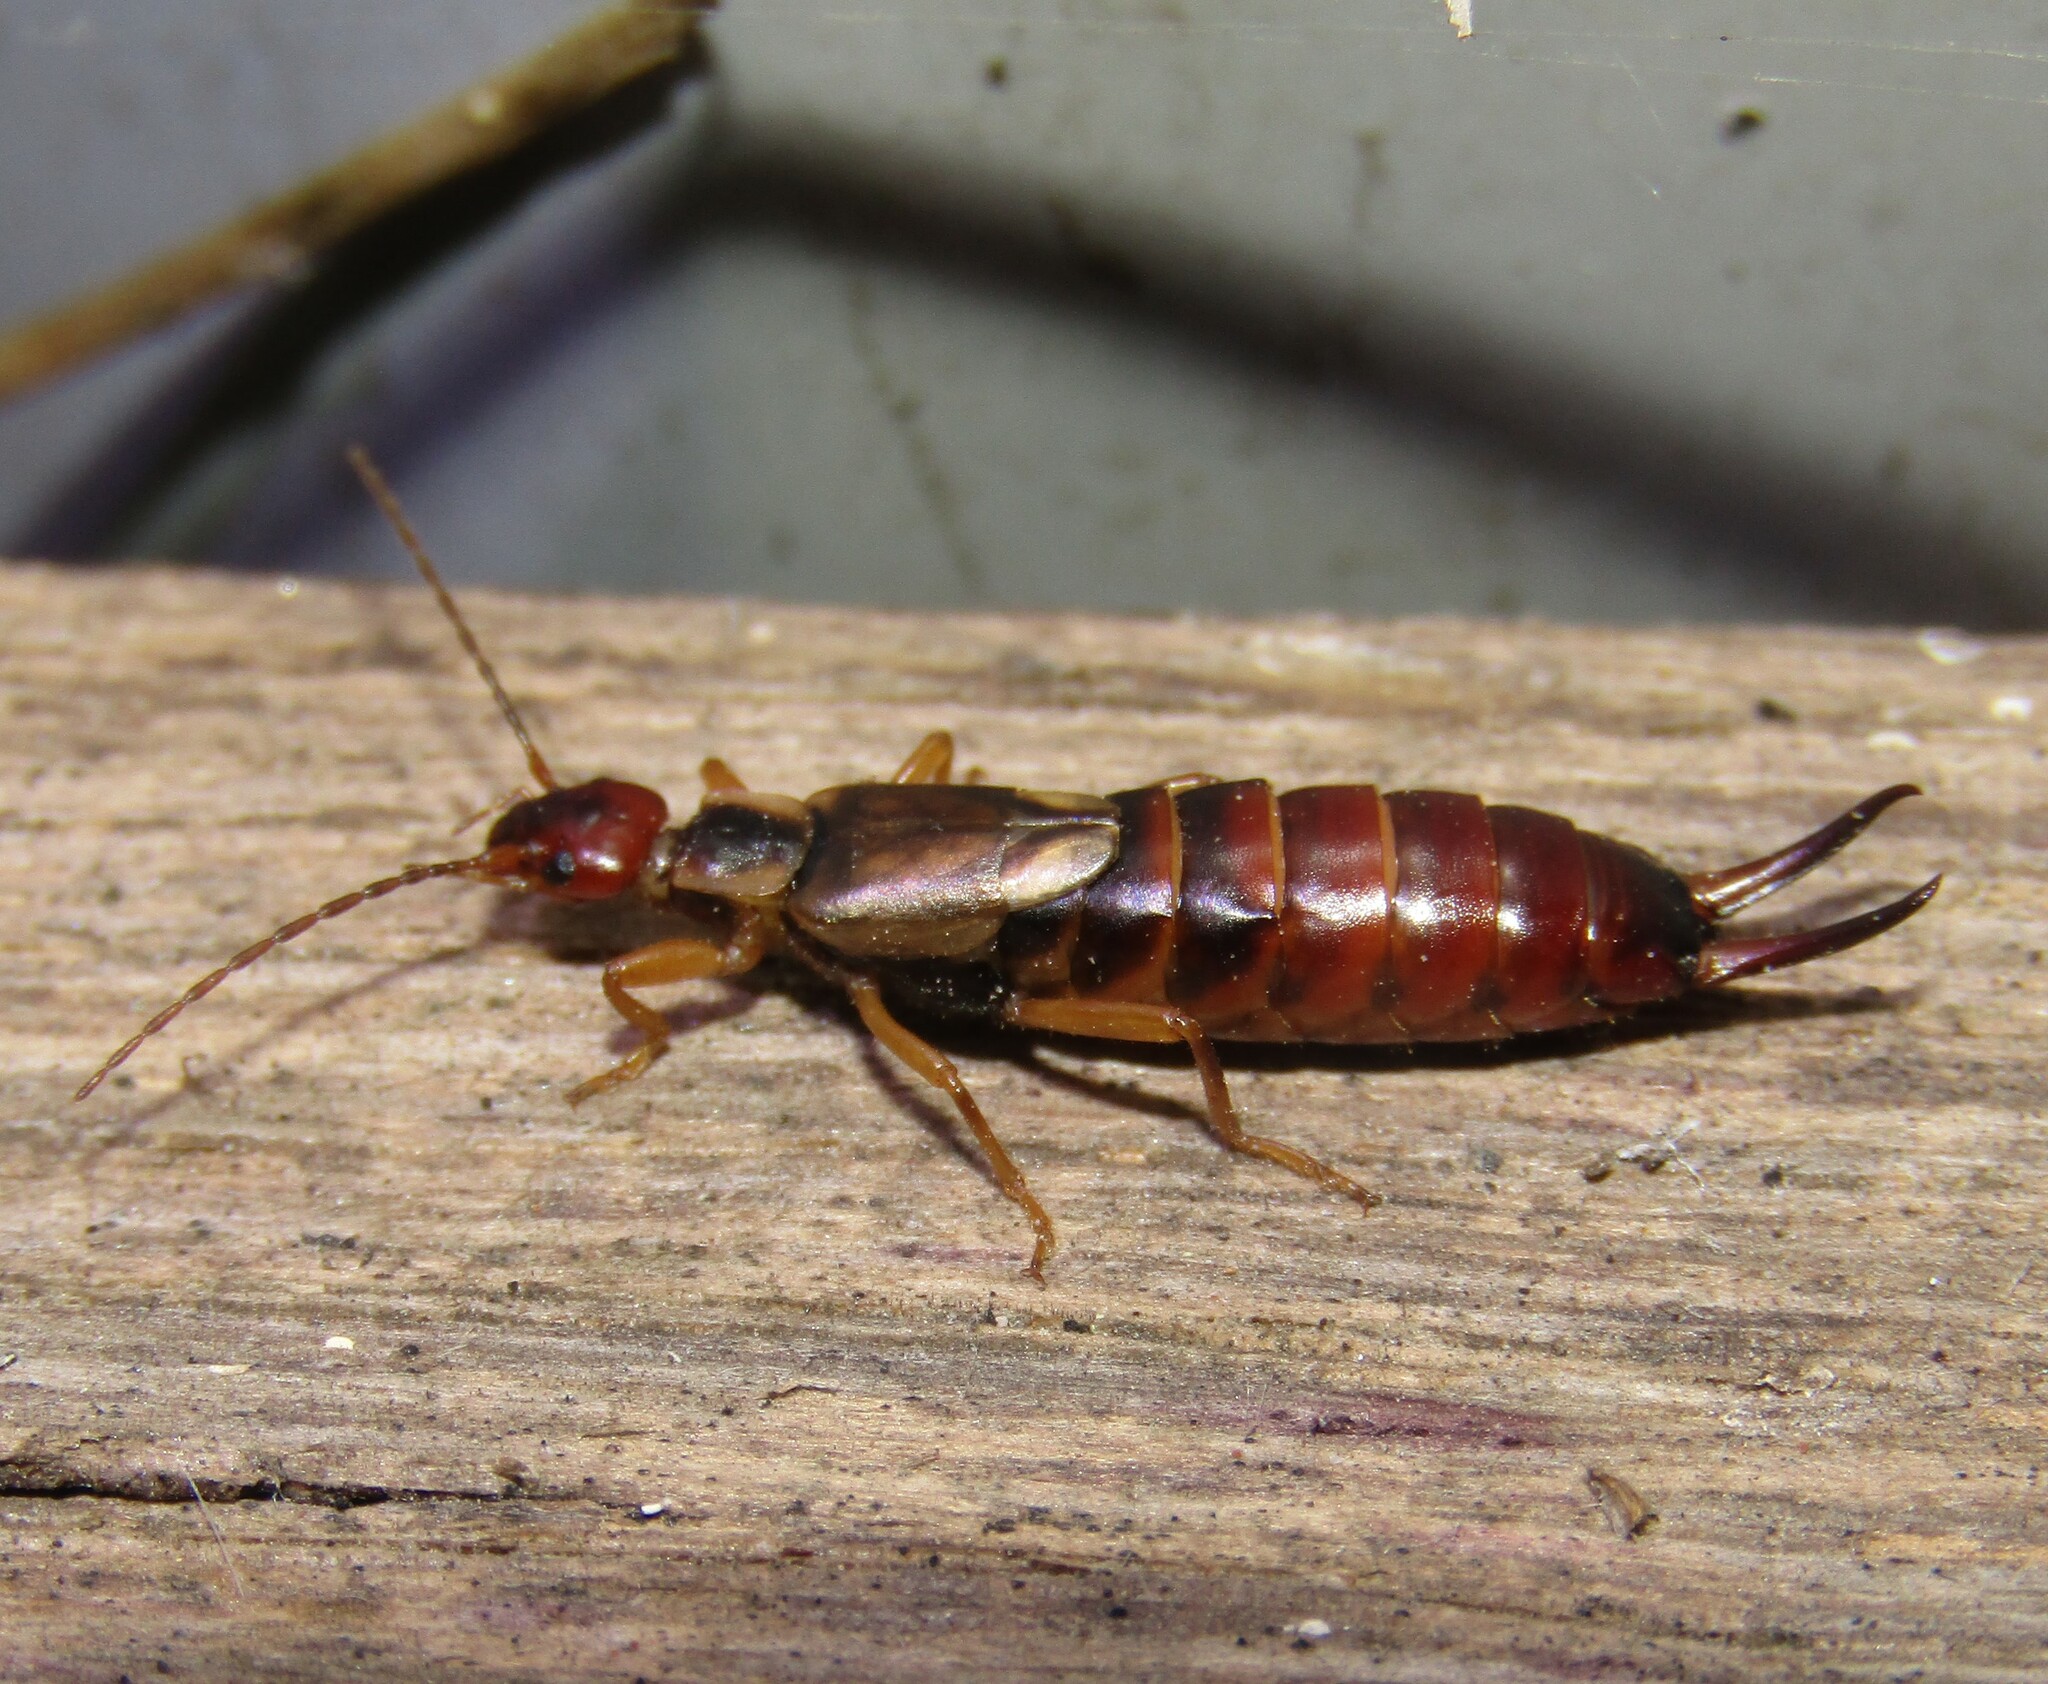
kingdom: Animalia
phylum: Arthropoda
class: Insecta
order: Dermaptera
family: Forficulidae
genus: Forficula
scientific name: Forficula
